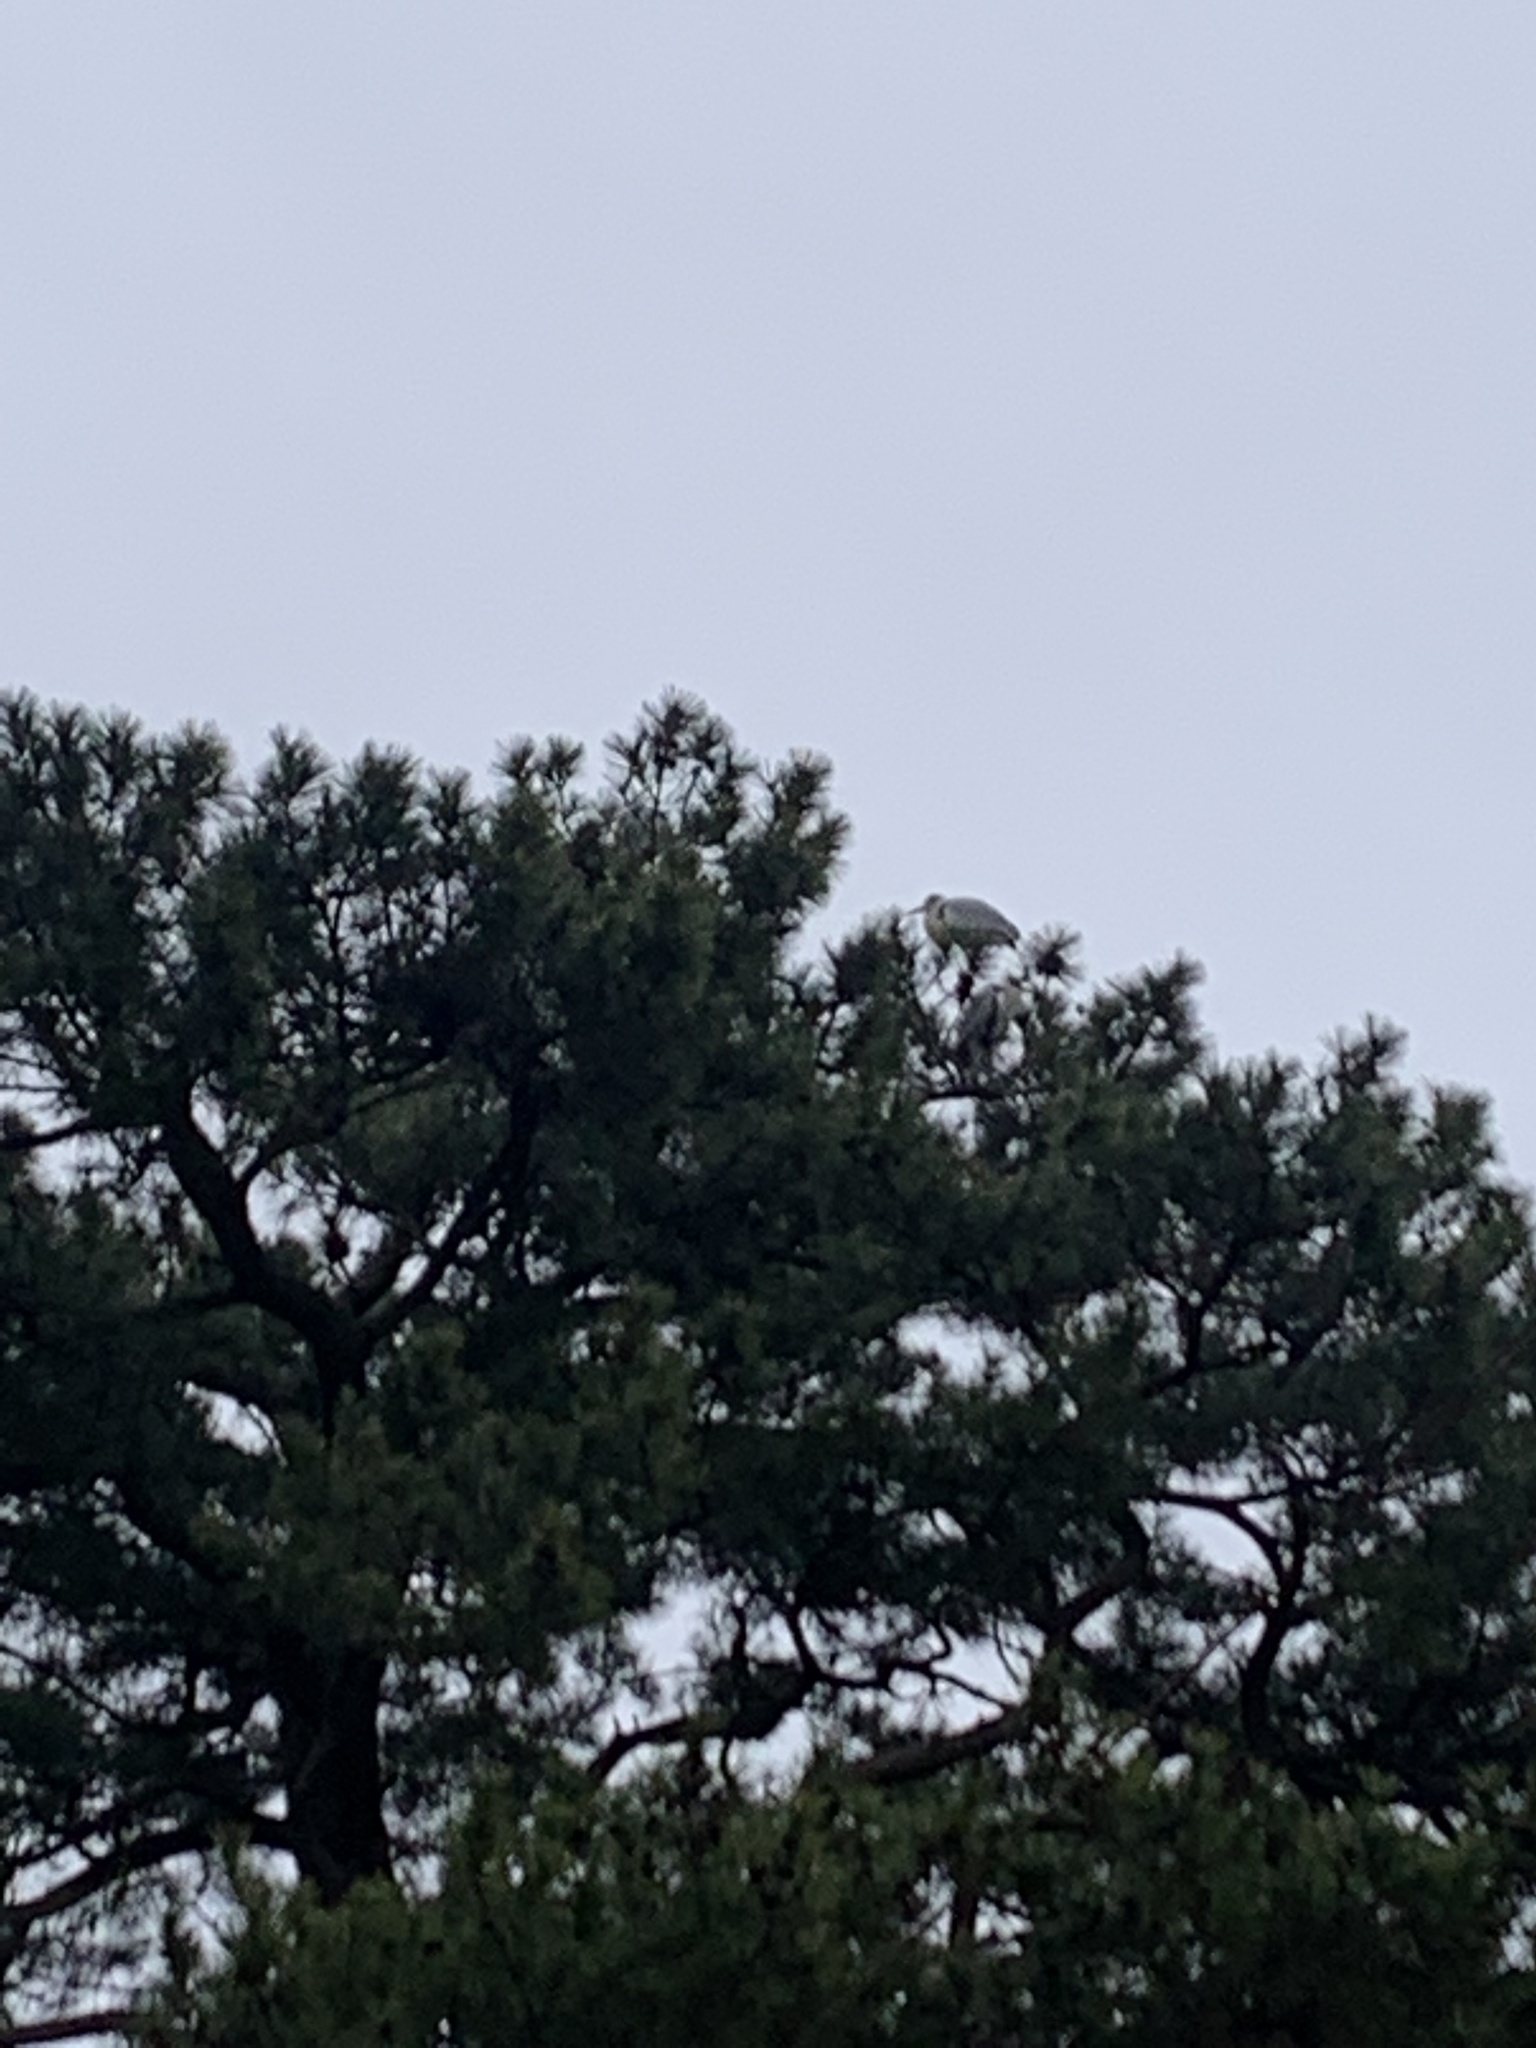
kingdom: Animalia
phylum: Chordata
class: Aves
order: Pelecaniformes
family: Ardeidae
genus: Ardea
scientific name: Ardea cinerea
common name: Grey heron
